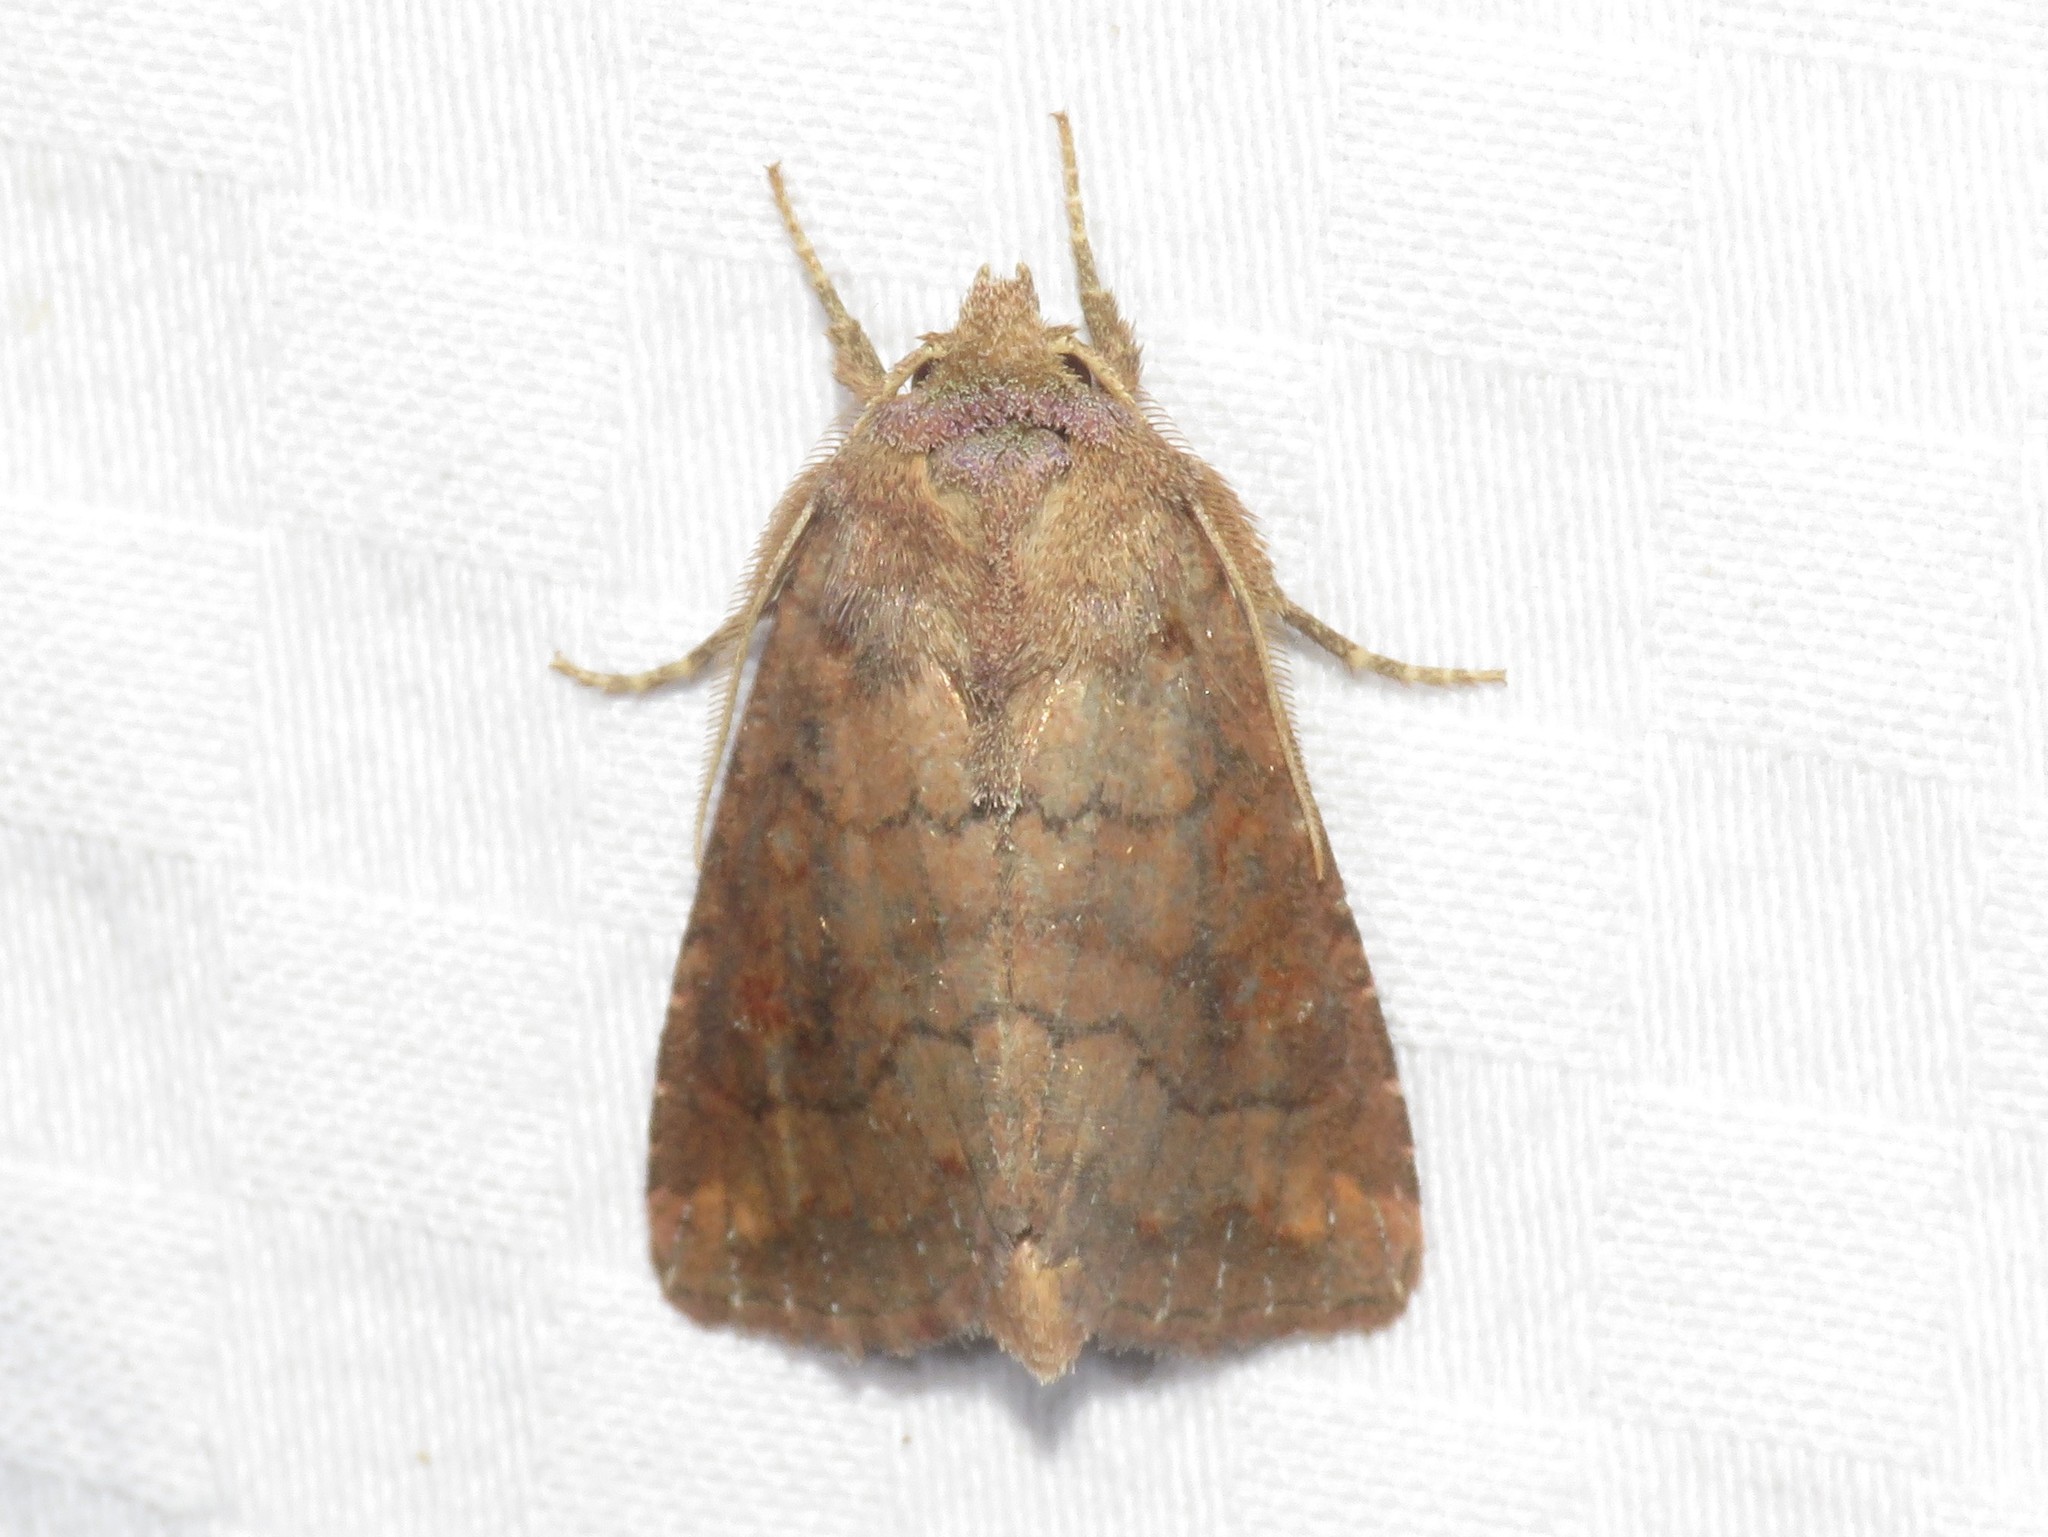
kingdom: Animalia
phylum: Arthropoda
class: Insecta
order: Lepidoptera
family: Noctuidae
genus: Tricholita
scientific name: Tricholita signata
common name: Signate quaker
